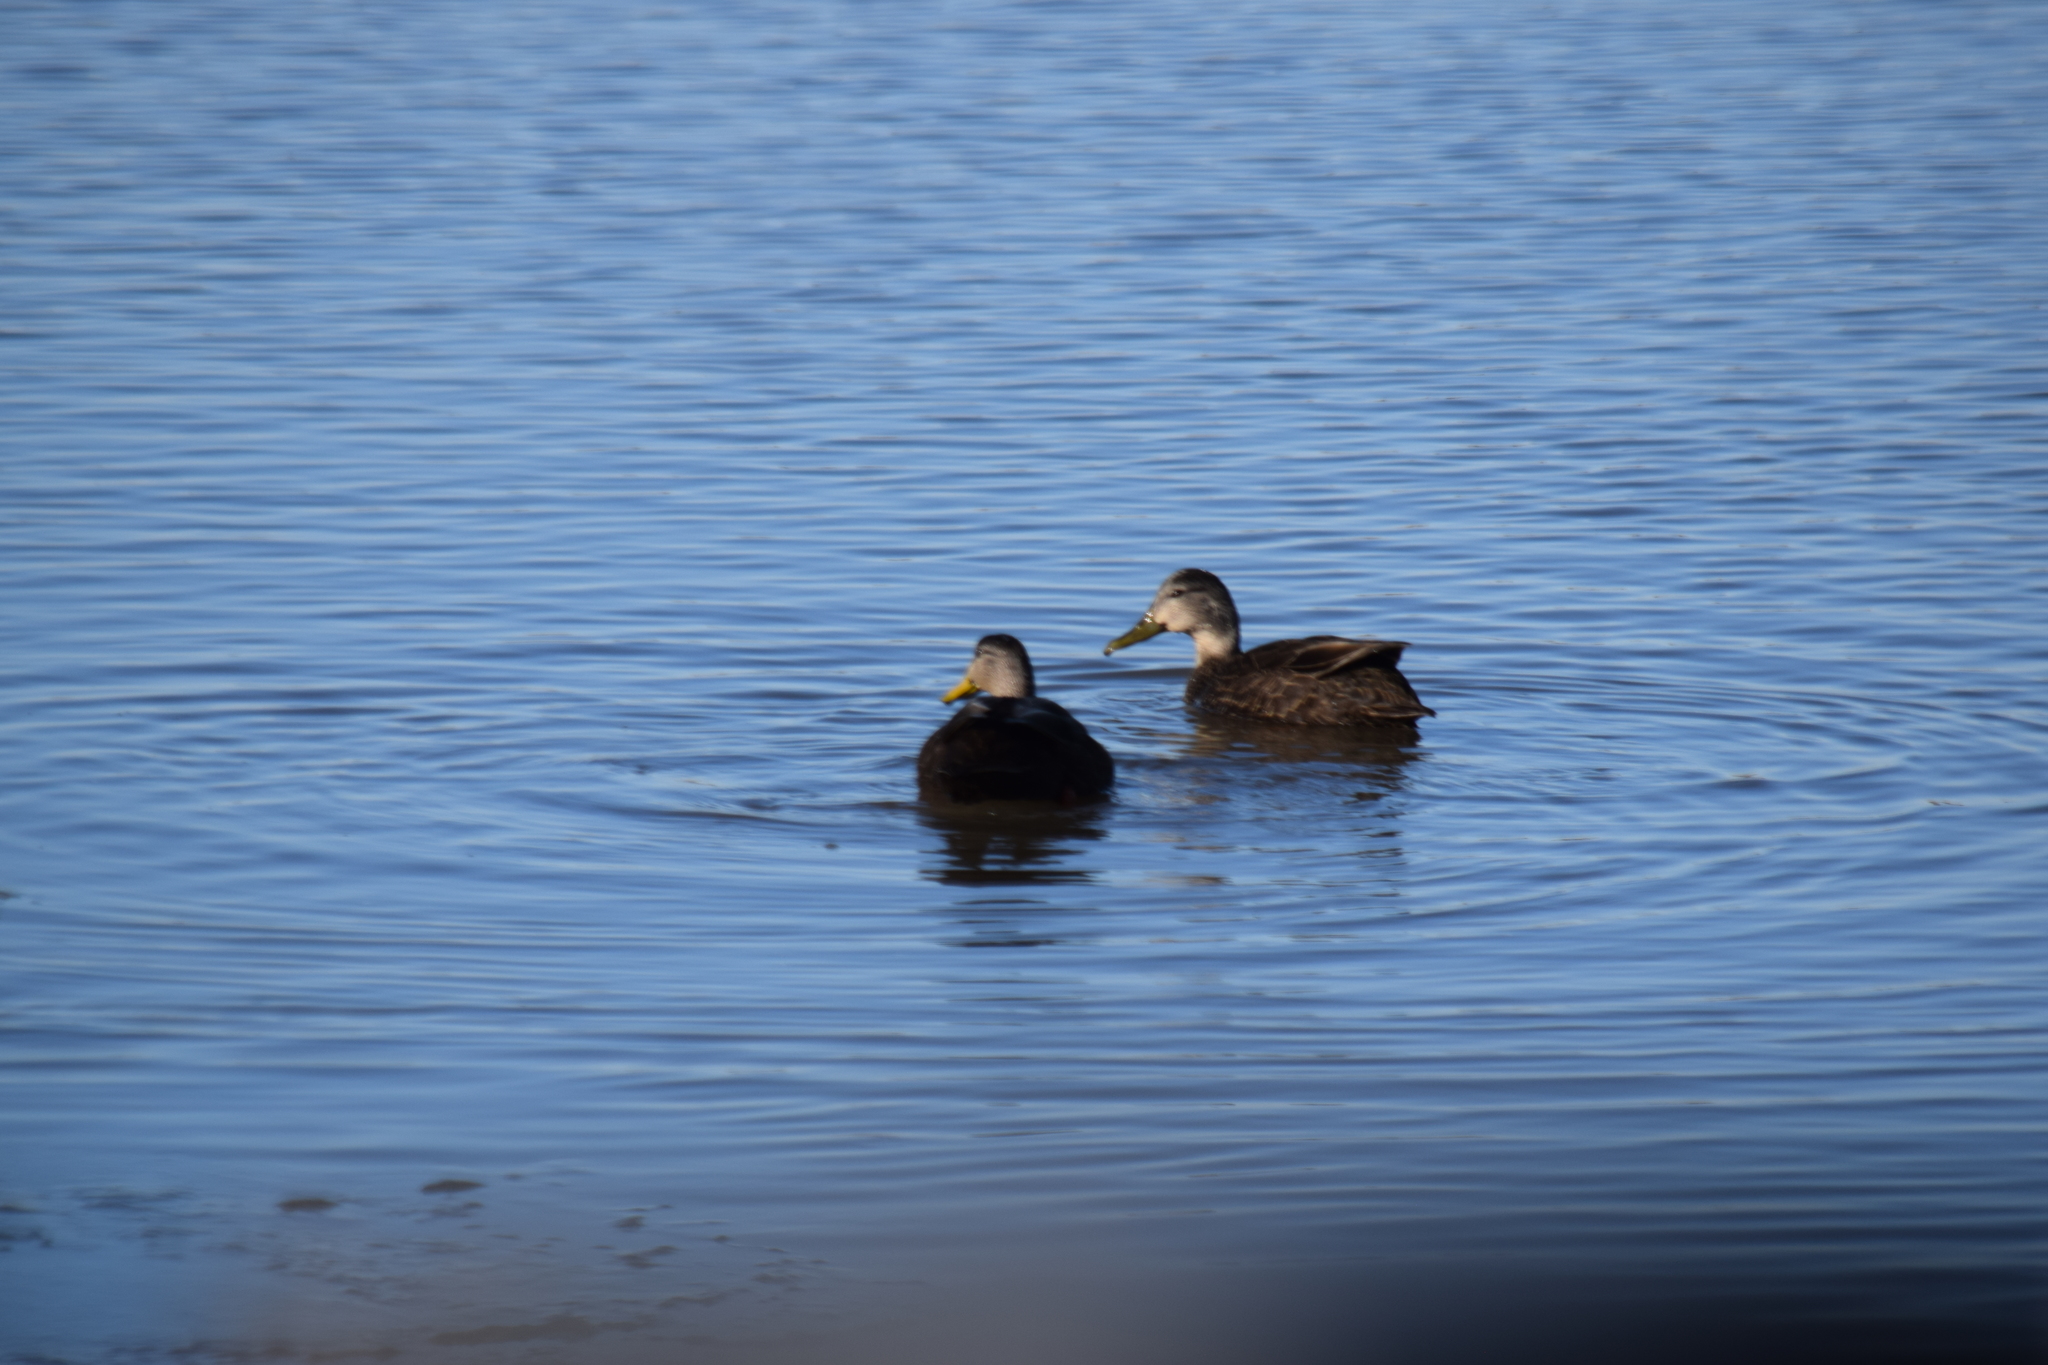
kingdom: Animalia
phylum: Chordata
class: Aves
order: Anseriformes
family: Anatidae
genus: Anas
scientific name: Anas rubripes
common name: American black duck
